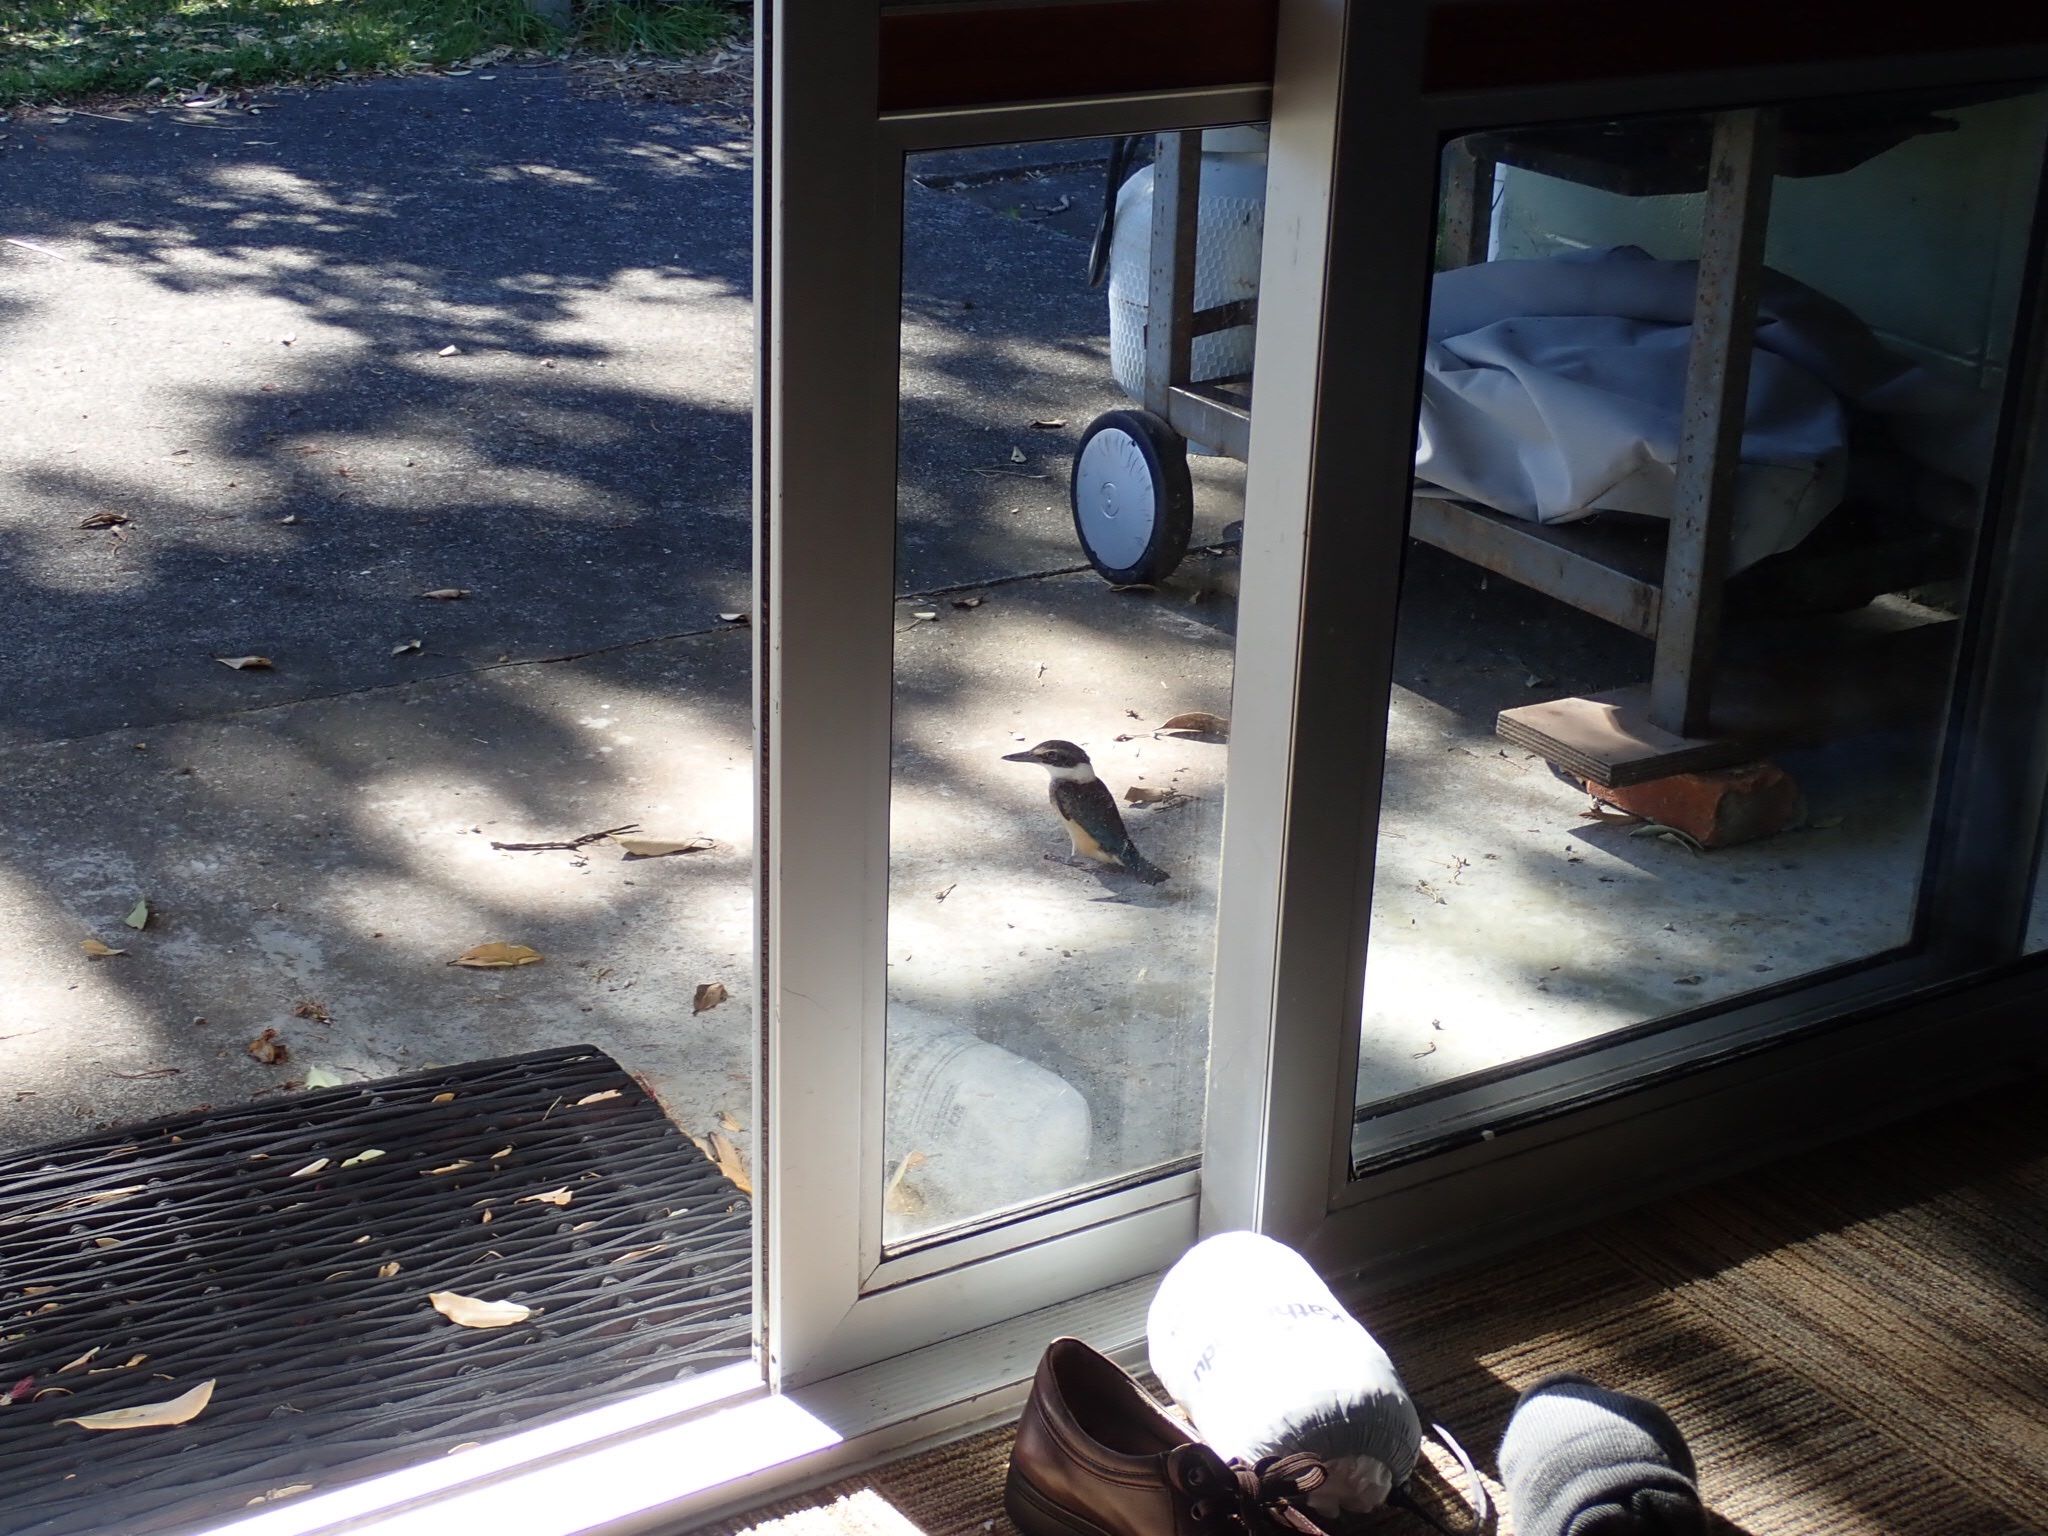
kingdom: Animalia
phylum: Chordata
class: Aves
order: Coraciiformes
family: Alcedinidae
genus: Todiramphus
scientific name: Todiramphus sanctus
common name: Sacred kingfisher
